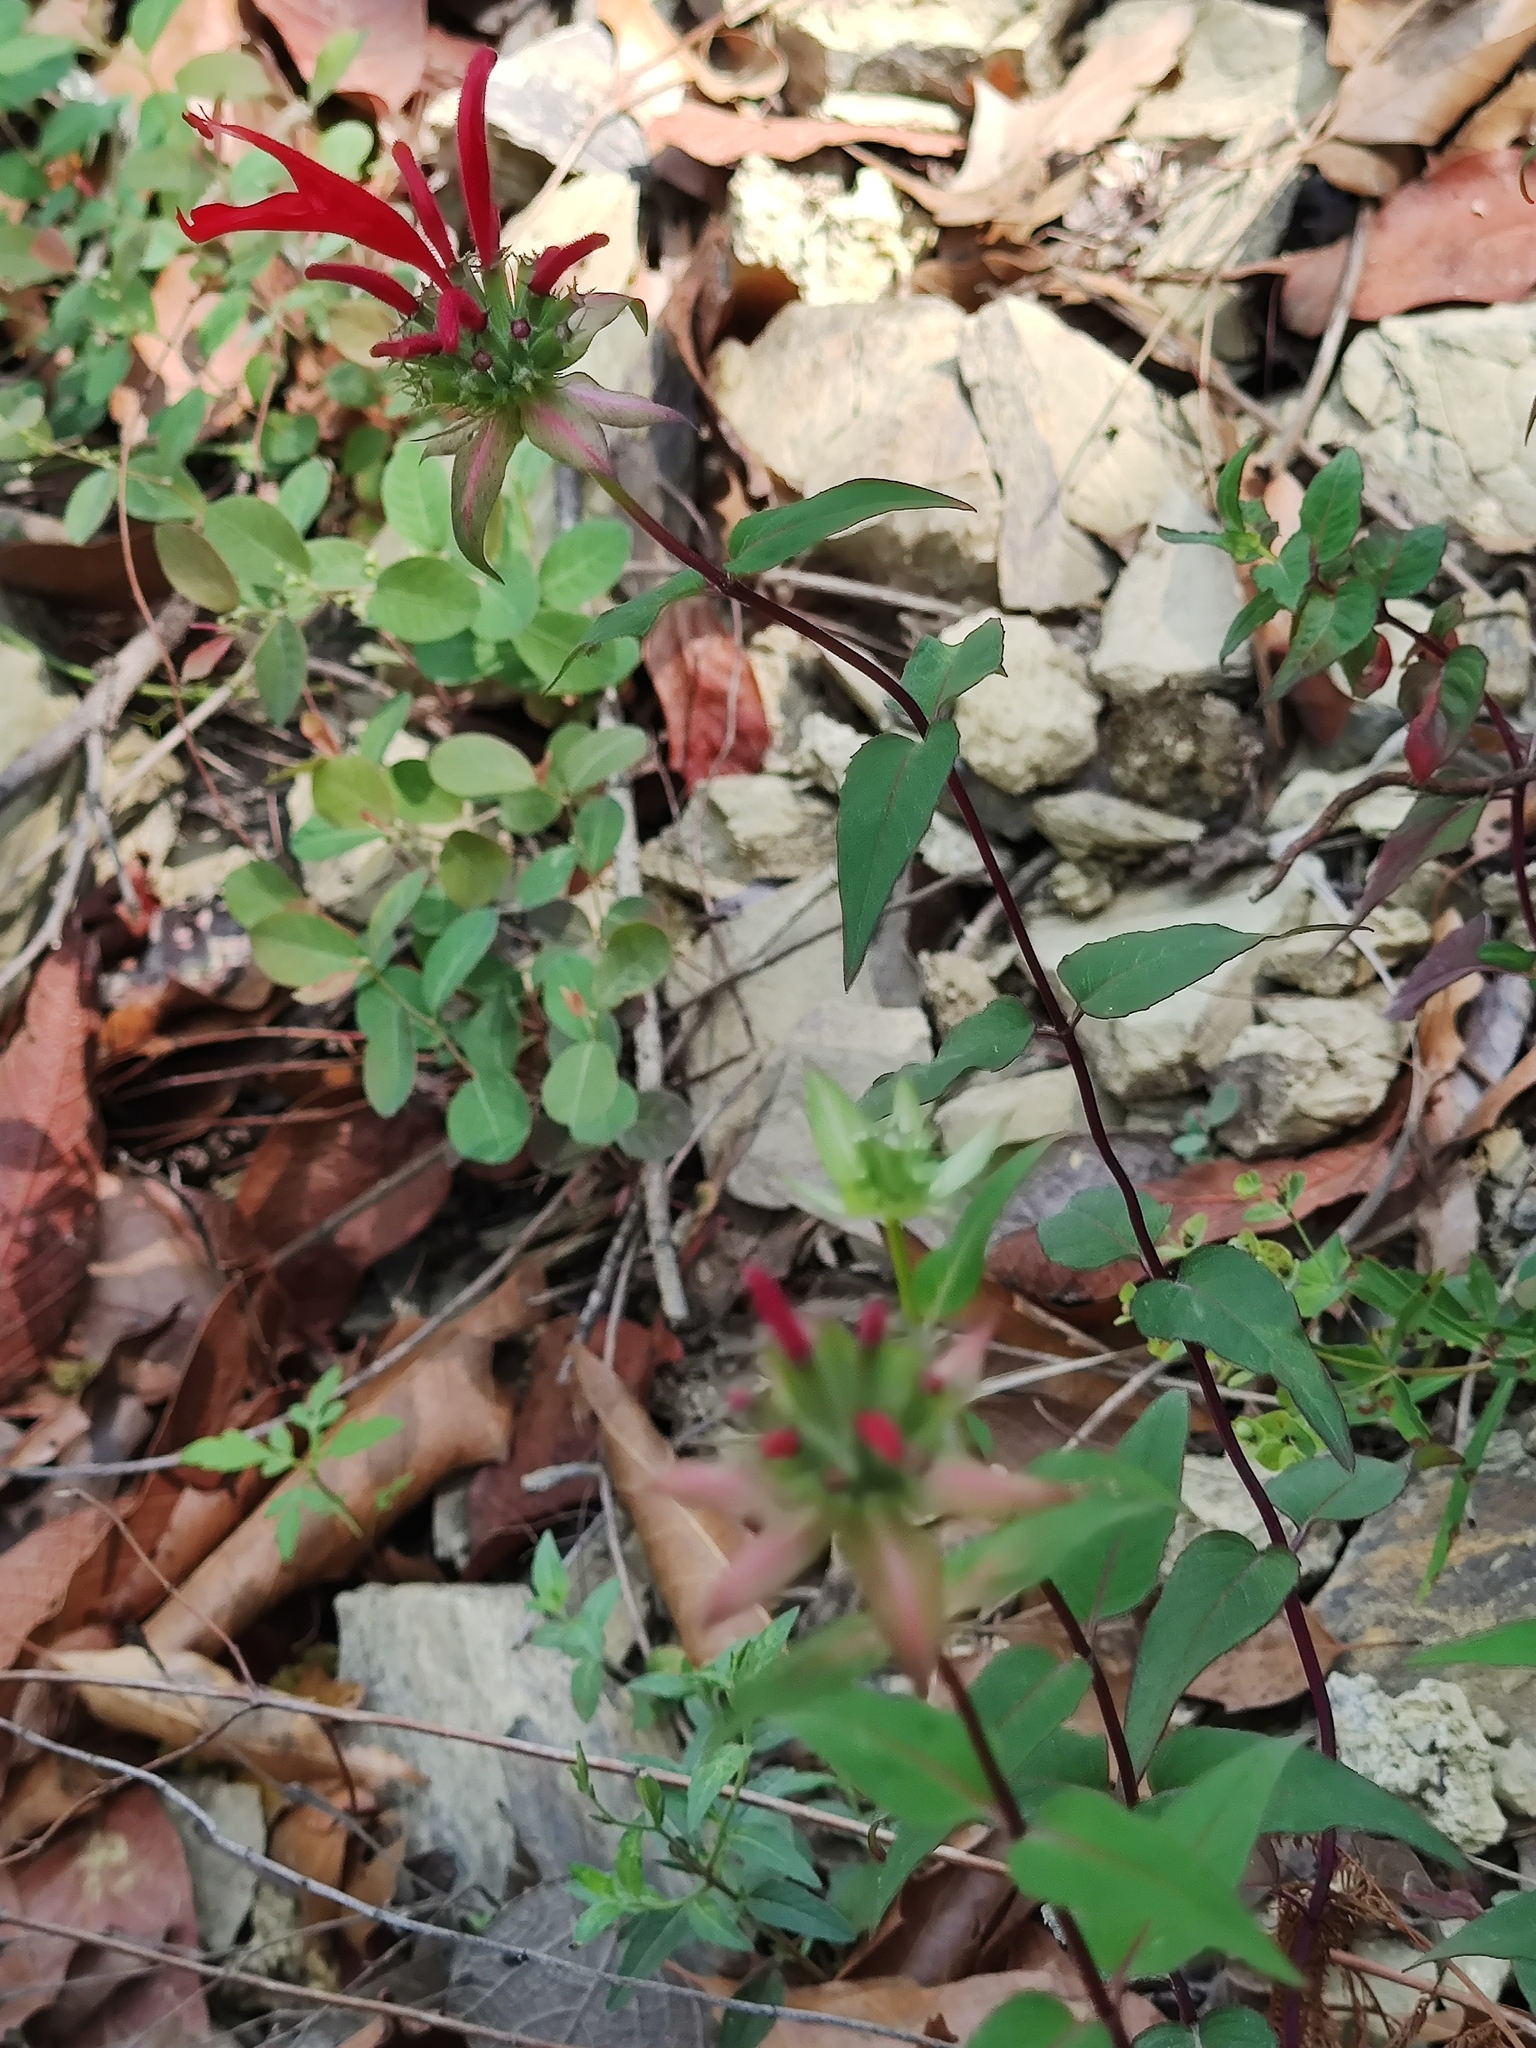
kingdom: Plantae
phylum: Tracheophyta
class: Magnoliopsida
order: Lamiales
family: Lamiaceae
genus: Monarda
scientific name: Monarda pringlei
